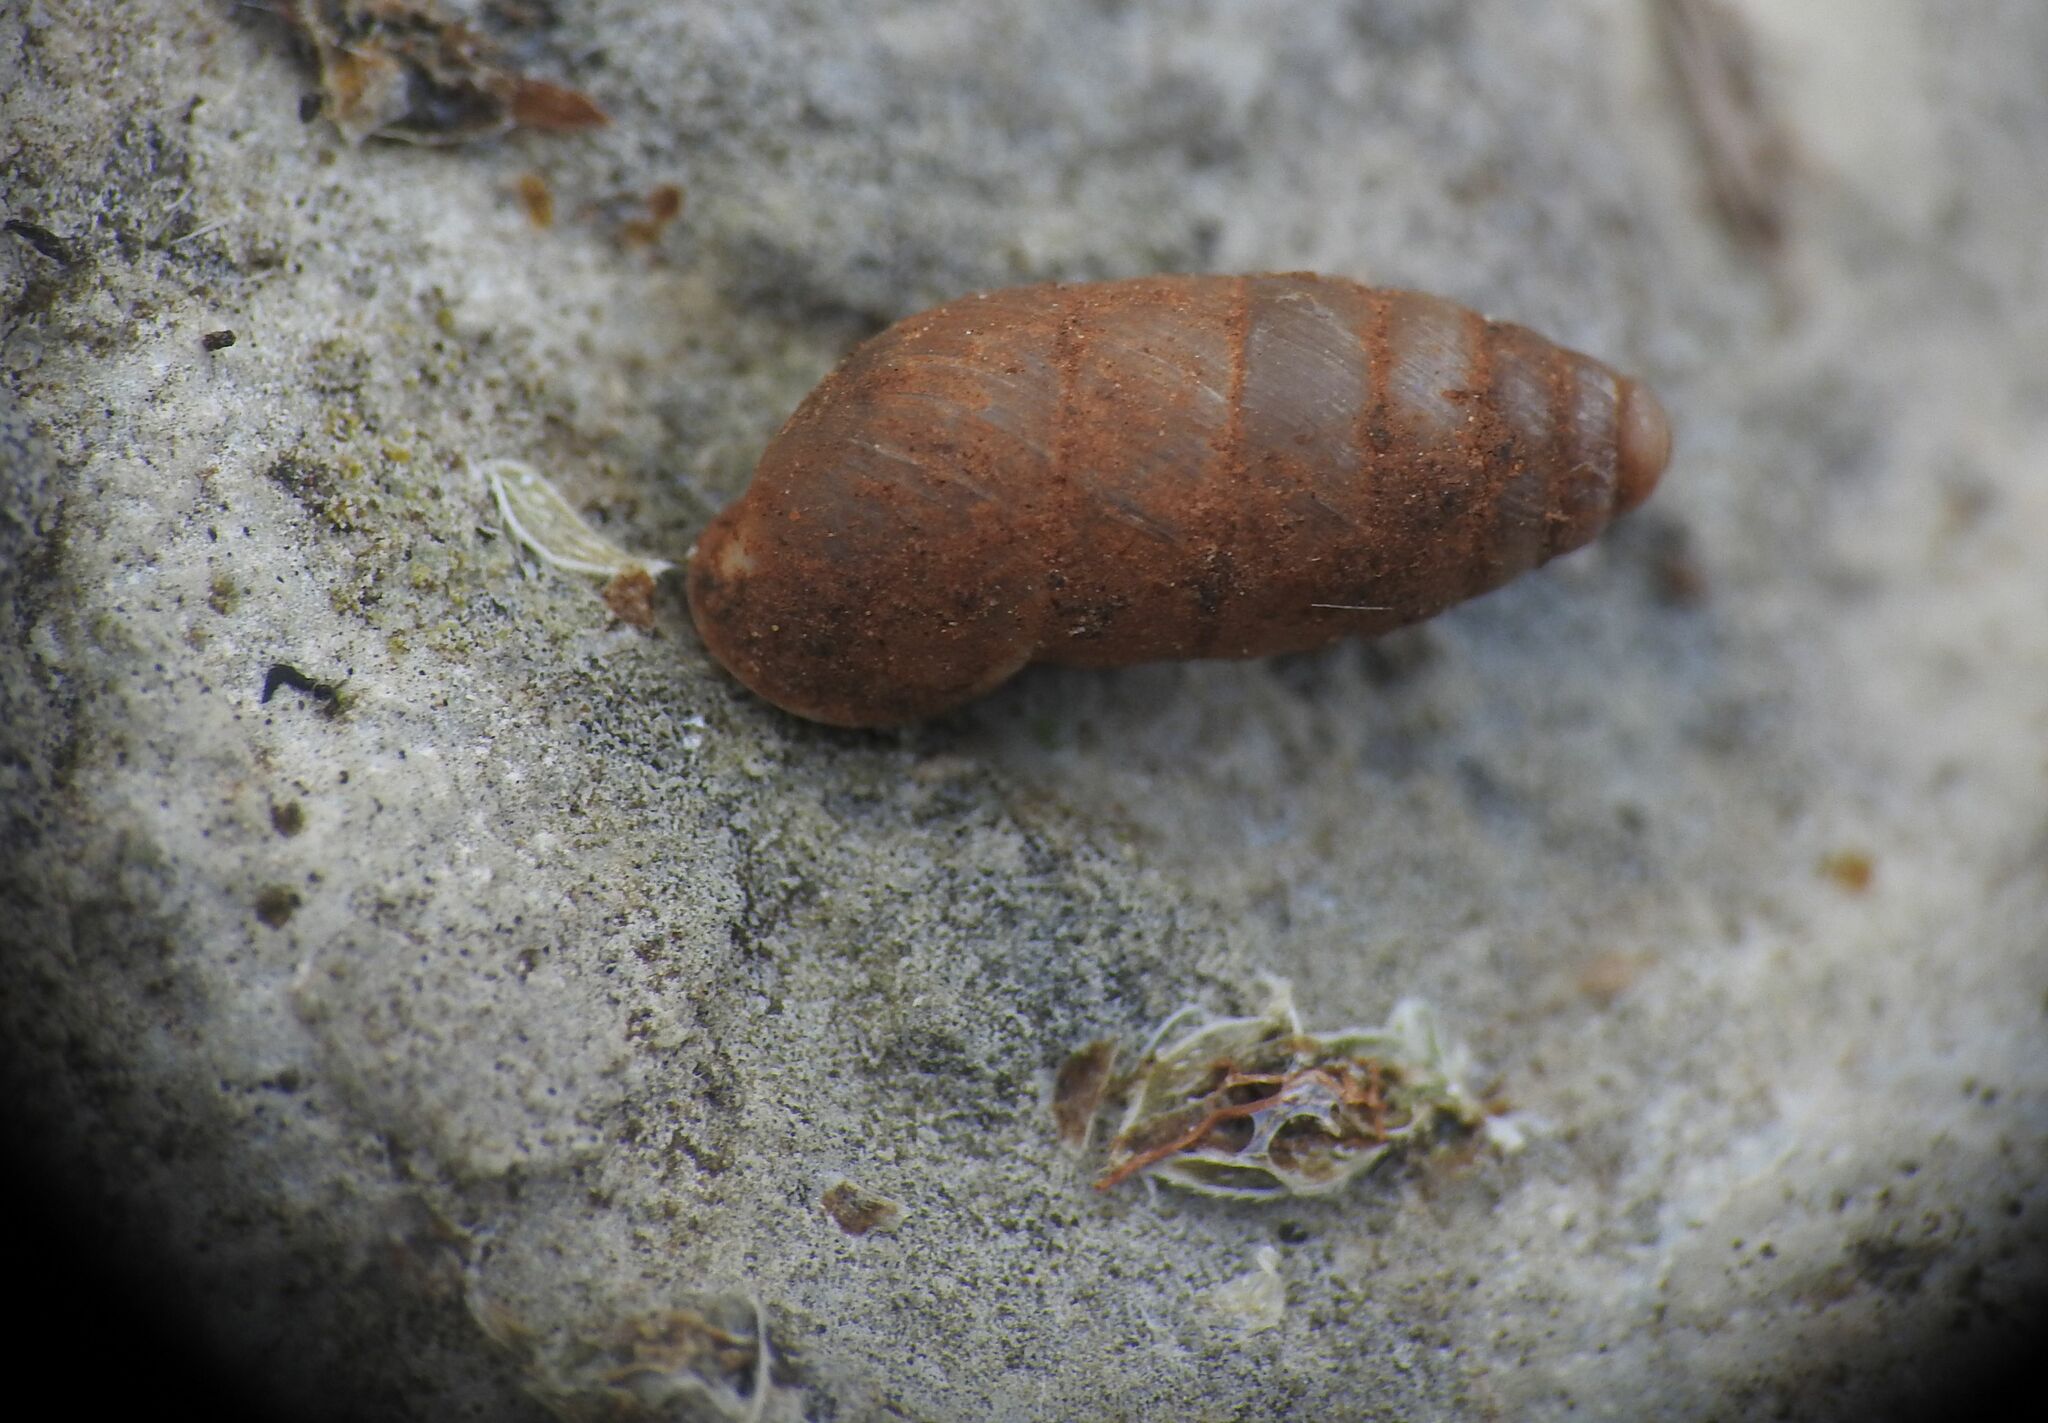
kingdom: Animalia
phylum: Mollusca
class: Gastropoda
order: Stylommatophora
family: Enidae
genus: Jaminia
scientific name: Jaminia quadridens
